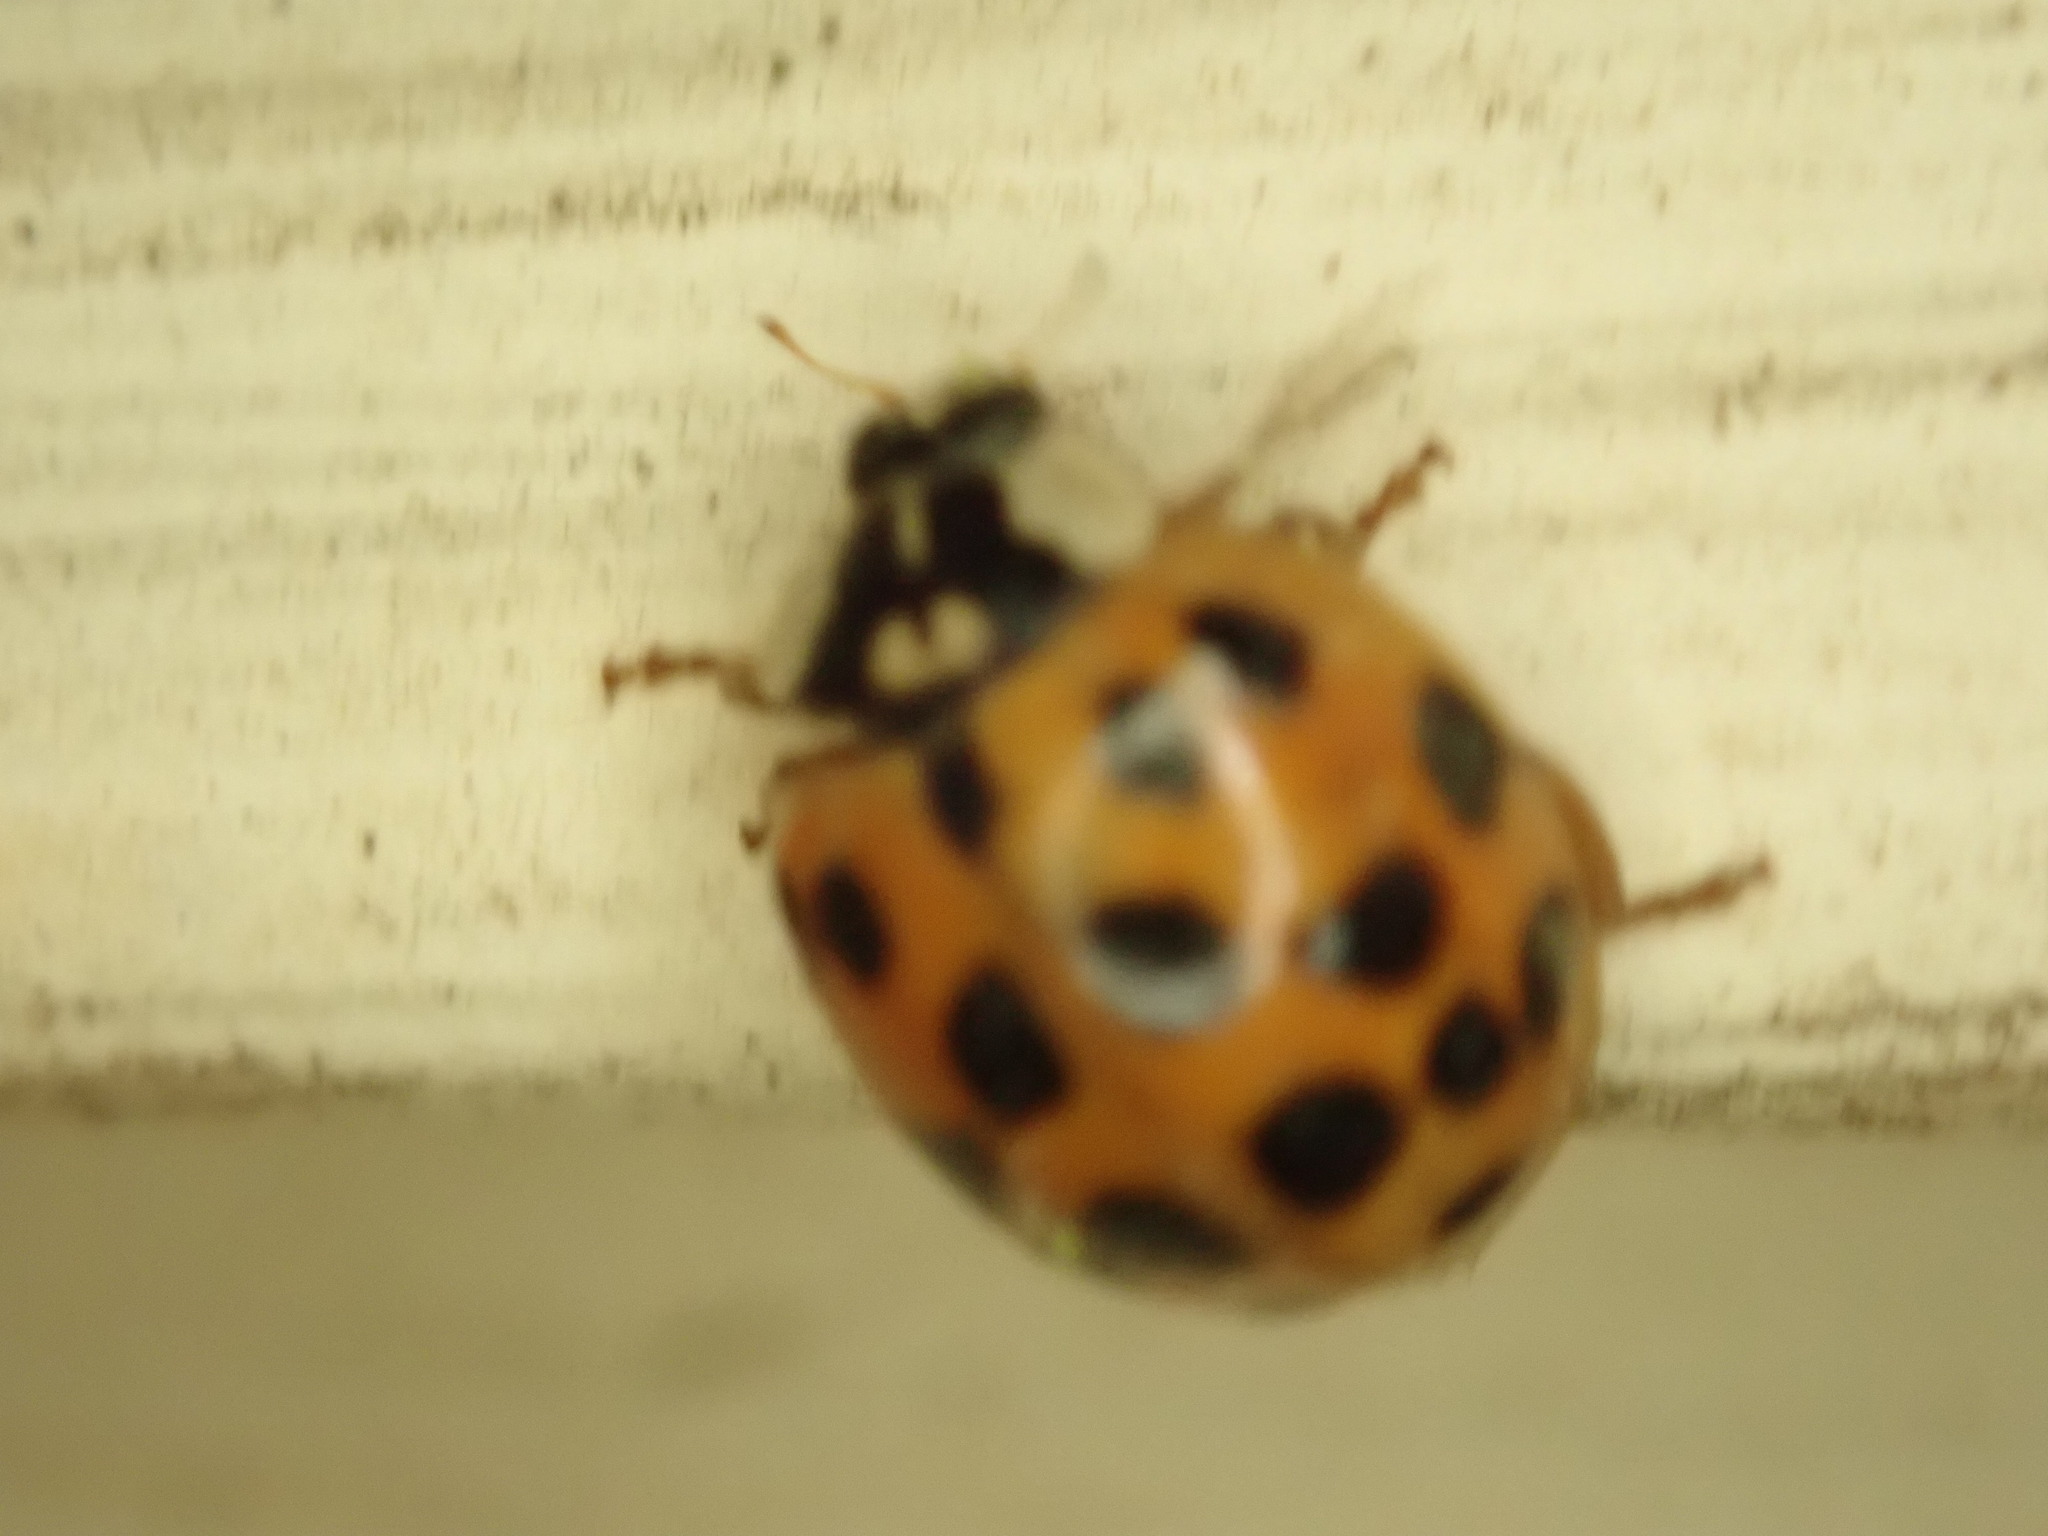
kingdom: Animalia
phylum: Arthropoda
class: Insecta
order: Coleoptera
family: Coccinellidae
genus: Harmonia
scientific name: Harmonia axyridis
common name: Harlequin ladybird
